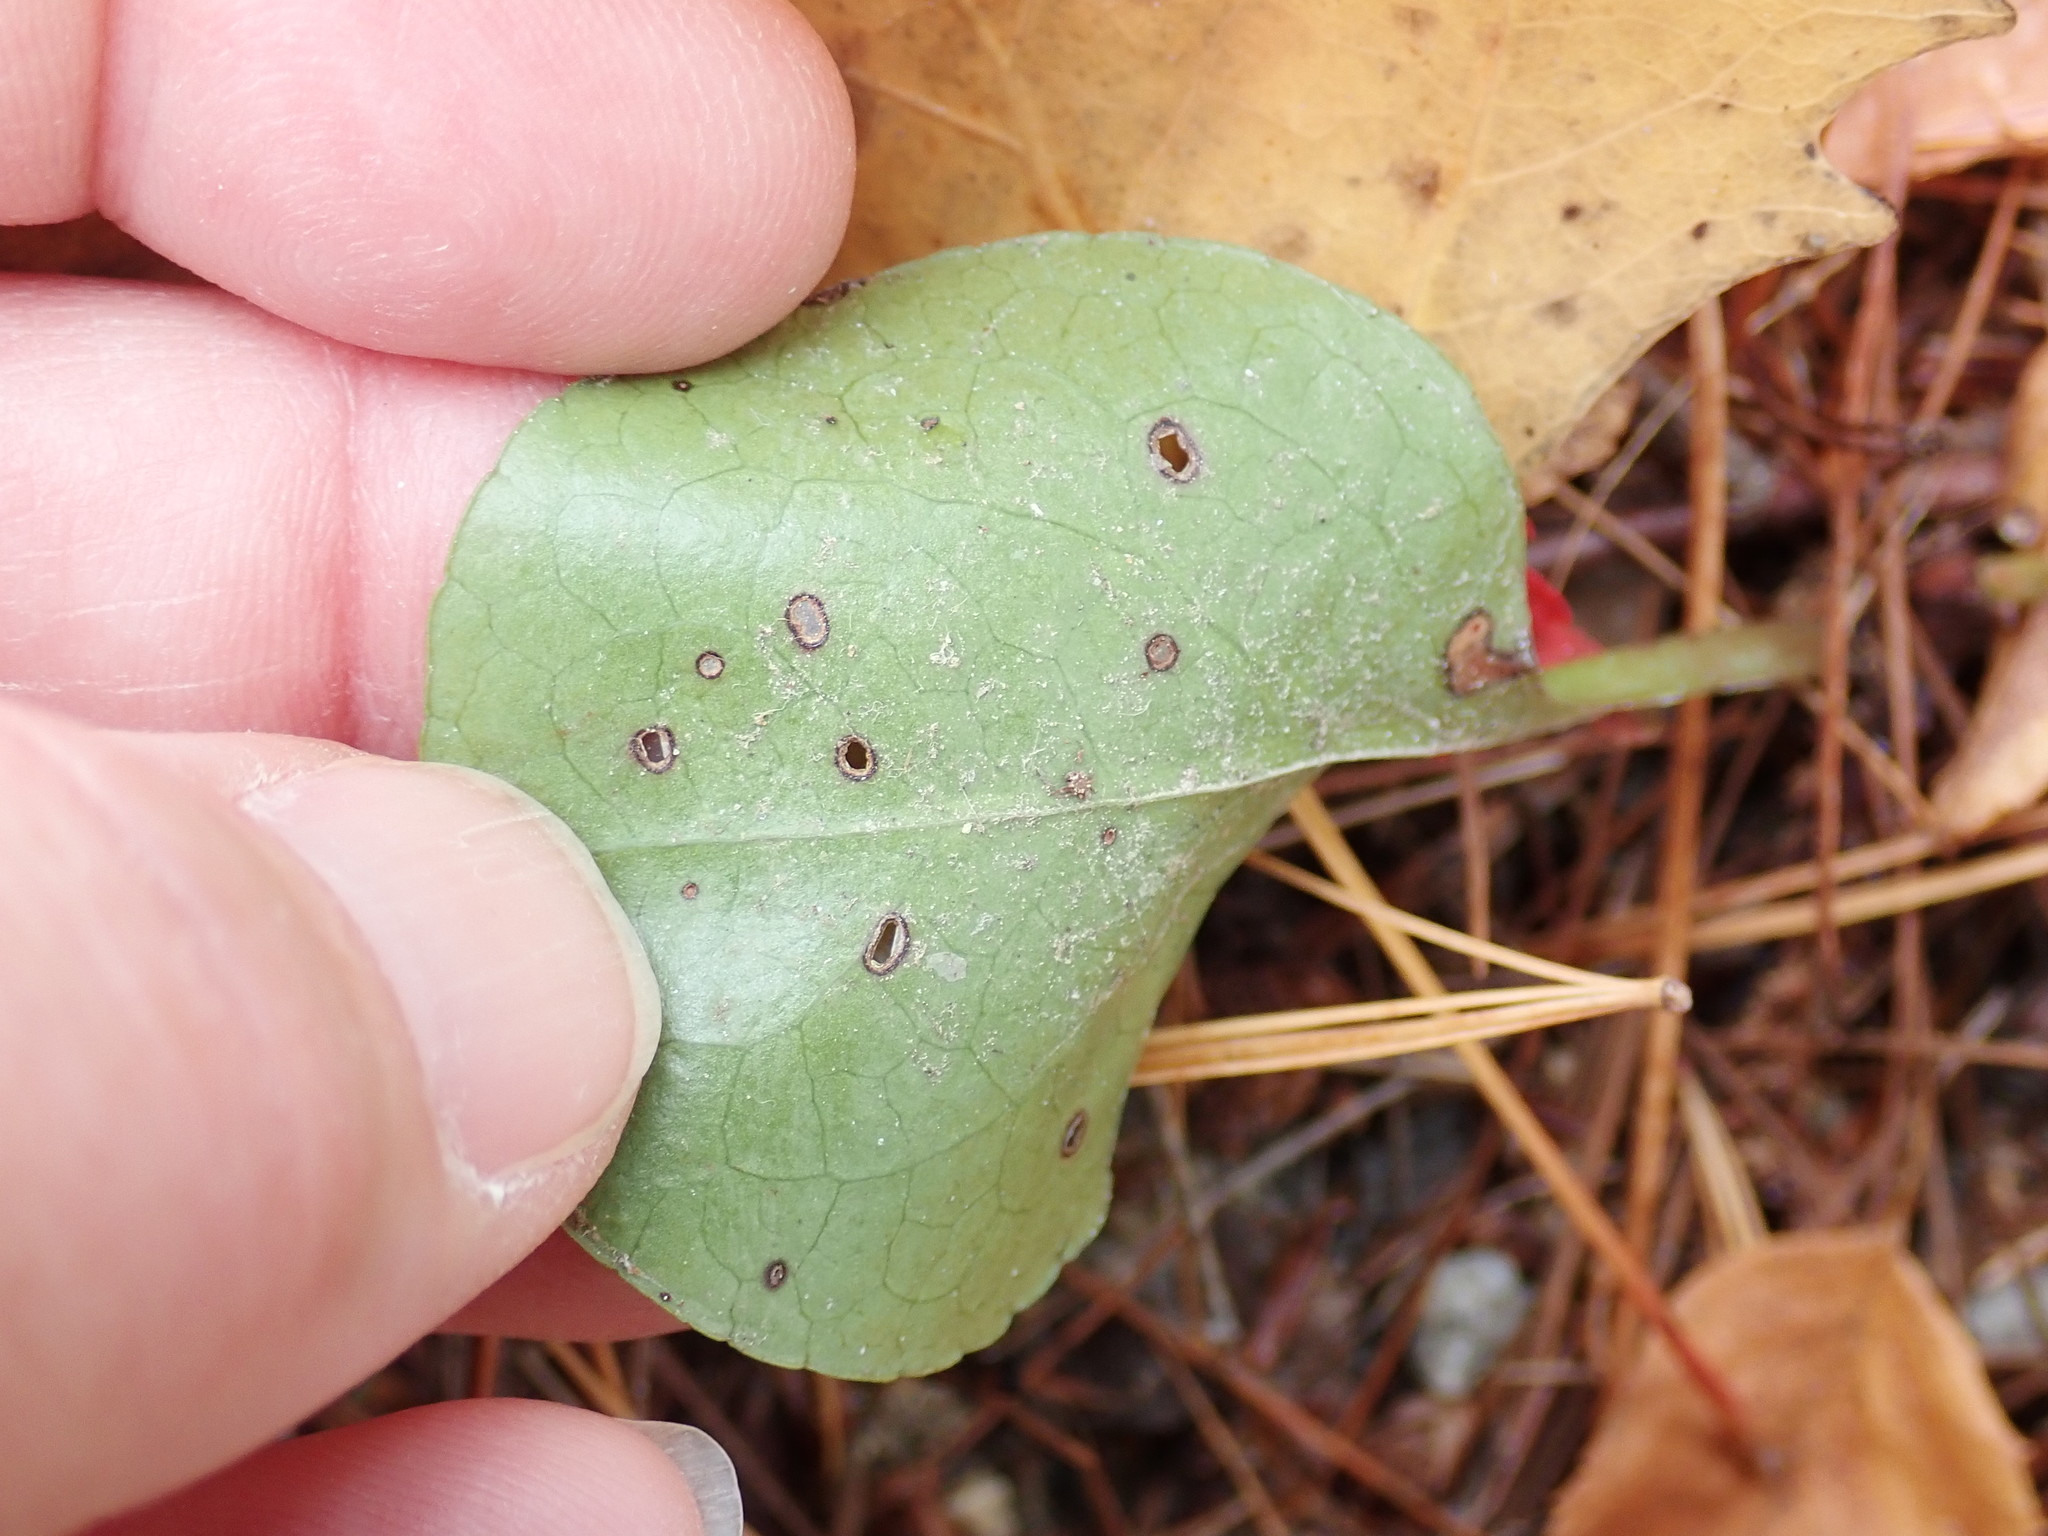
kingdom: Plantae
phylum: Tracheophyta
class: Magnoliopsida
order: Ericales
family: Ericaceae
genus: Pyrola
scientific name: Pyrola americana
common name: American wintergreen
